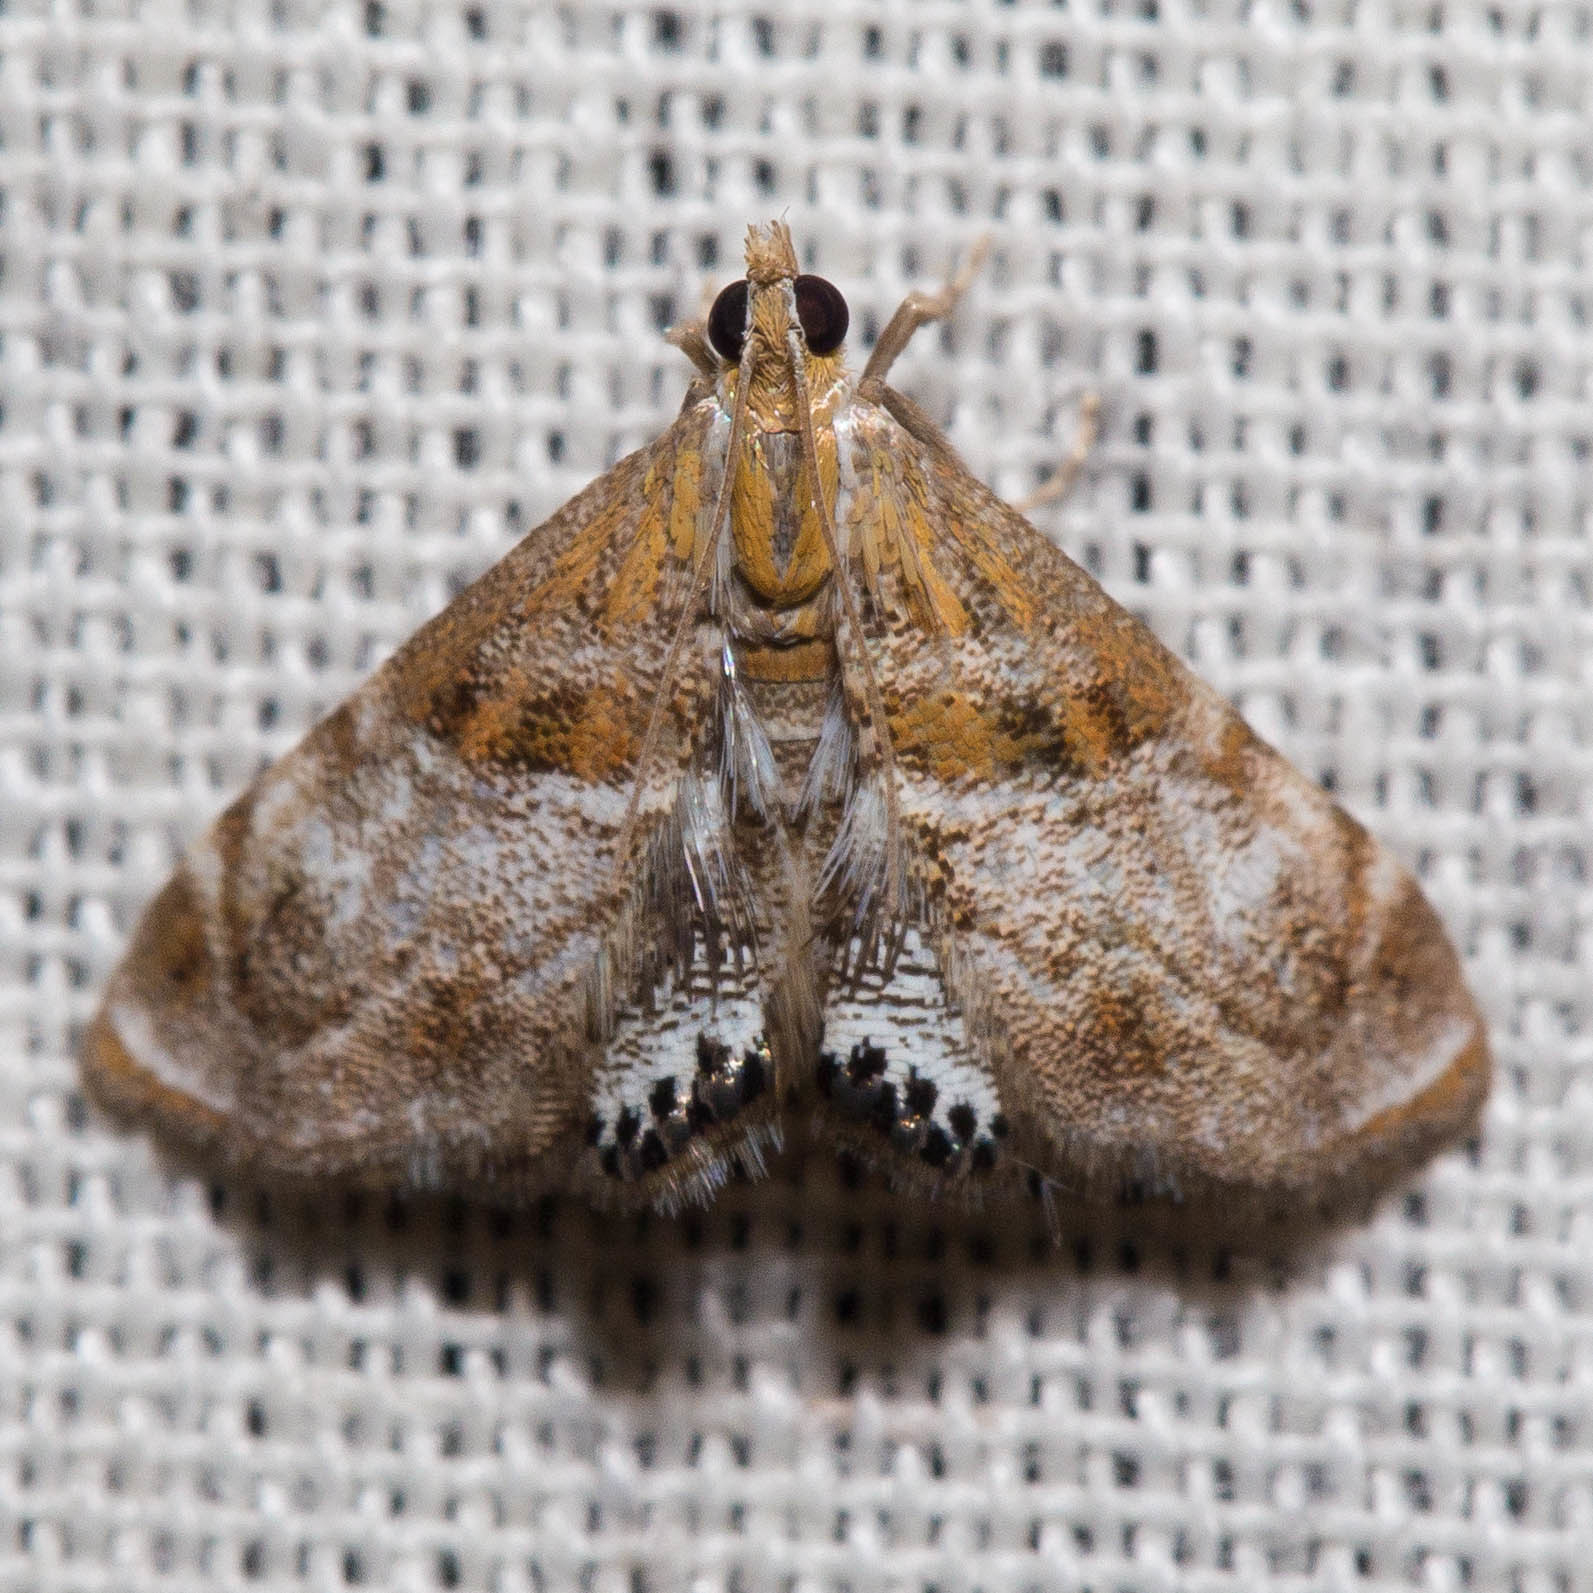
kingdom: Animalia
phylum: Arthropoda
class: Insecta
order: Lepidoptera
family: Crambidae
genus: Dicymolomia
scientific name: Dicymolomia metalliferalis
